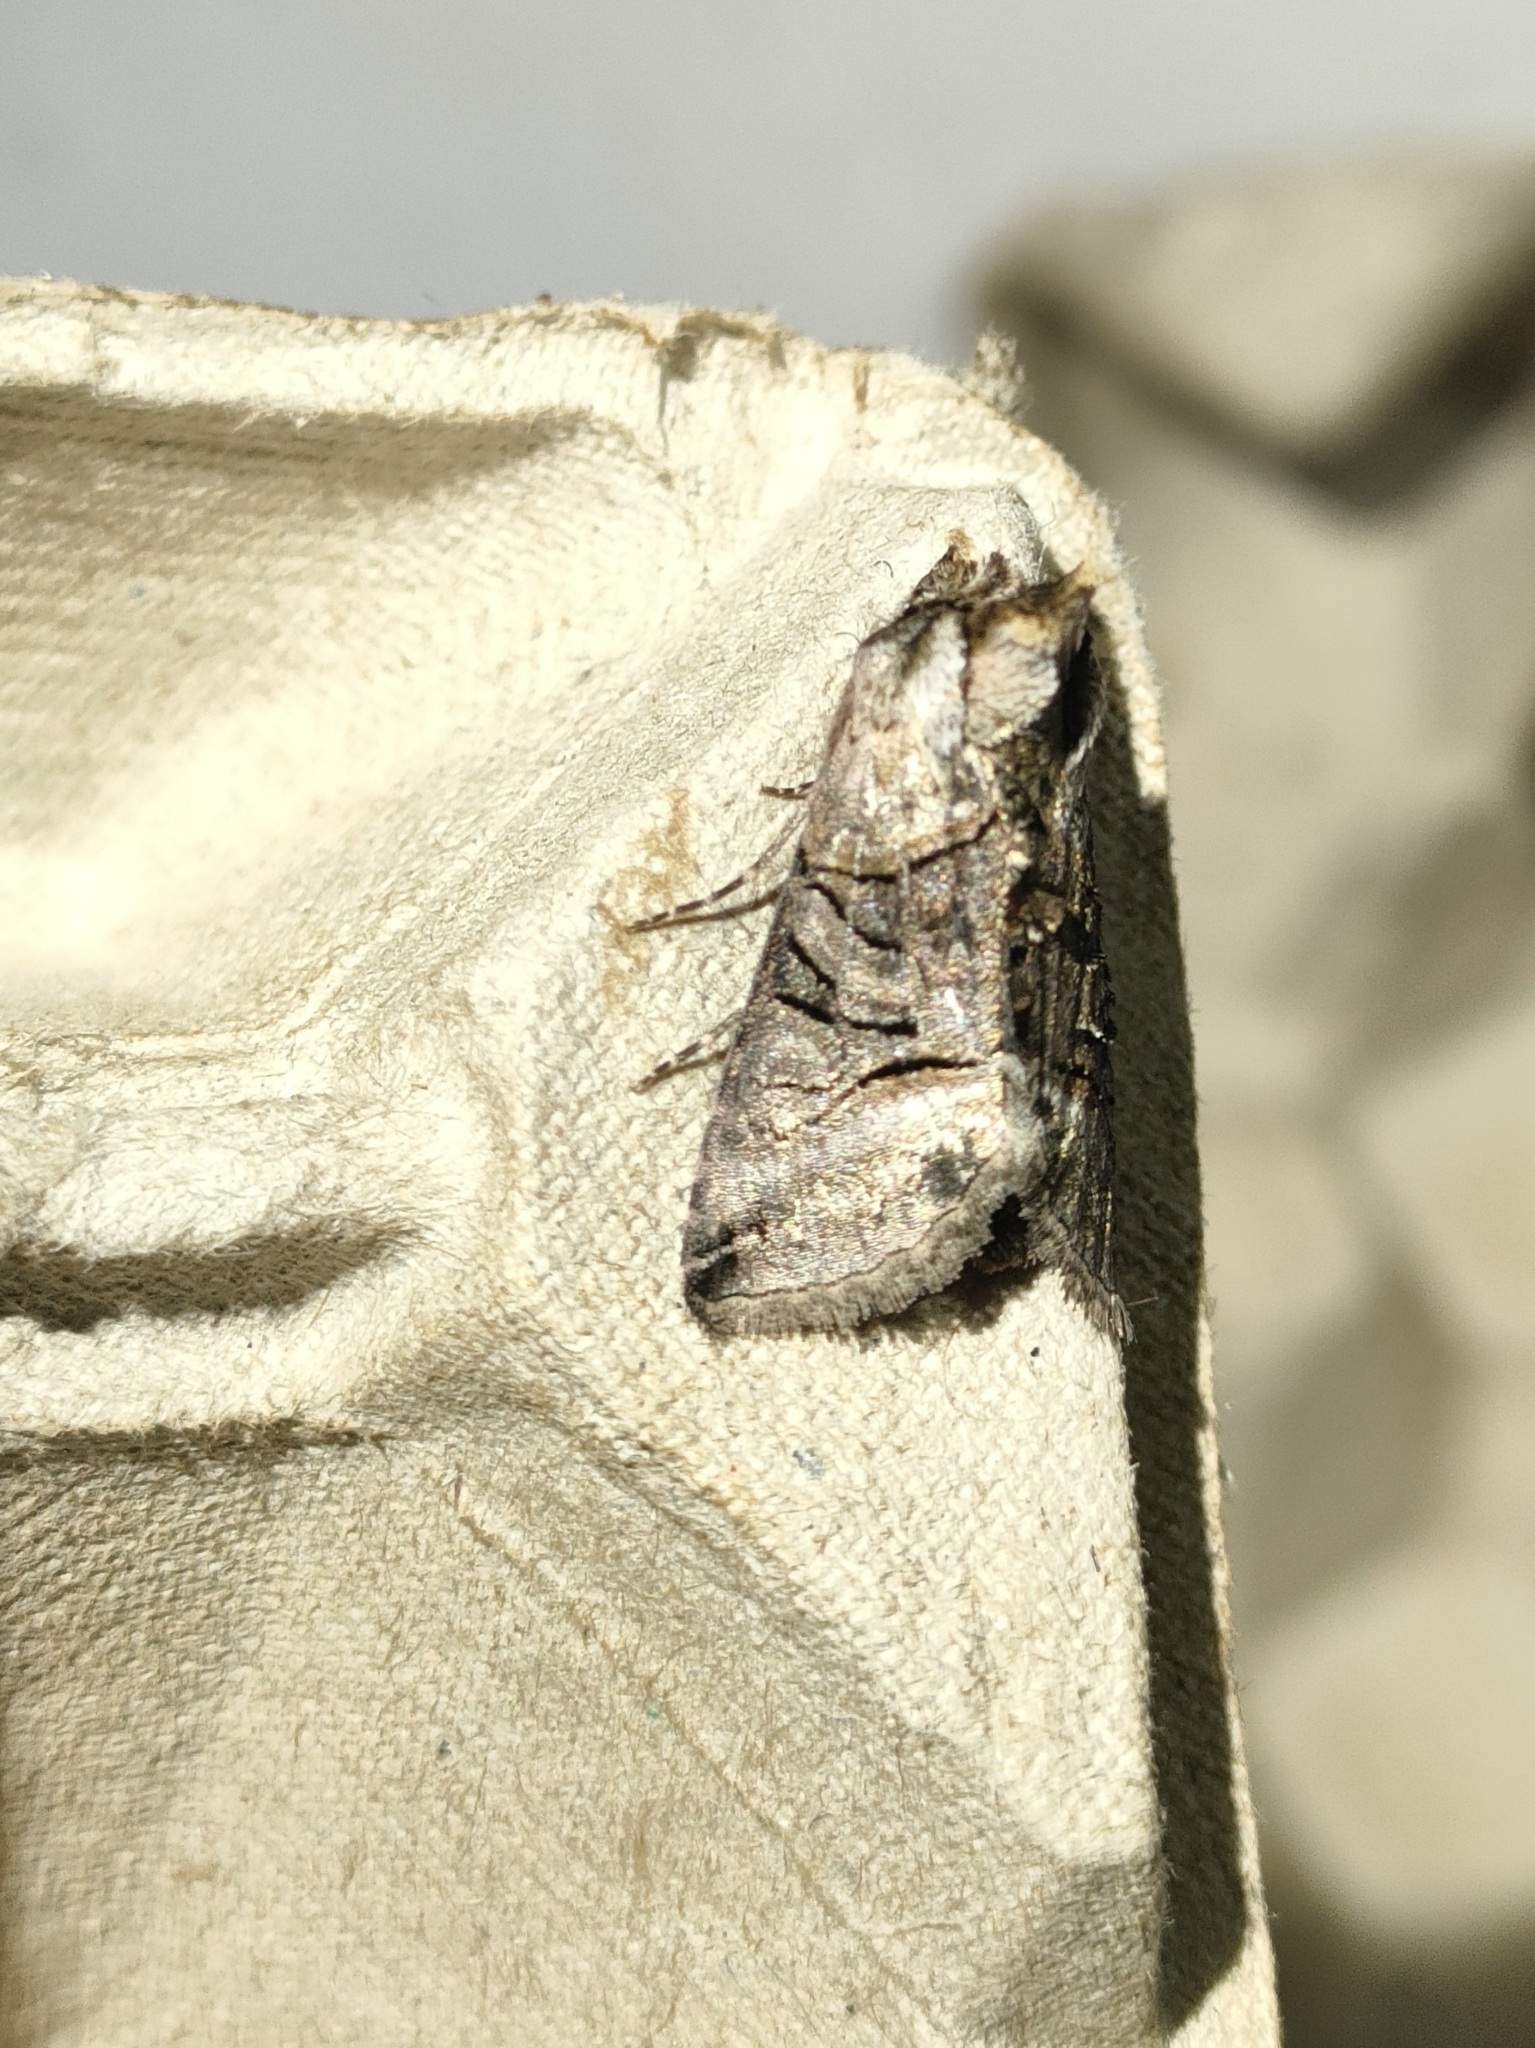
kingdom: Animalia
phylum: Arthropoda
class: Insecta
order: Lepidoptera
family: Noctuidae
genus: Abrostola
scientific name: Abrostola tripartita
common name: Spectacle
